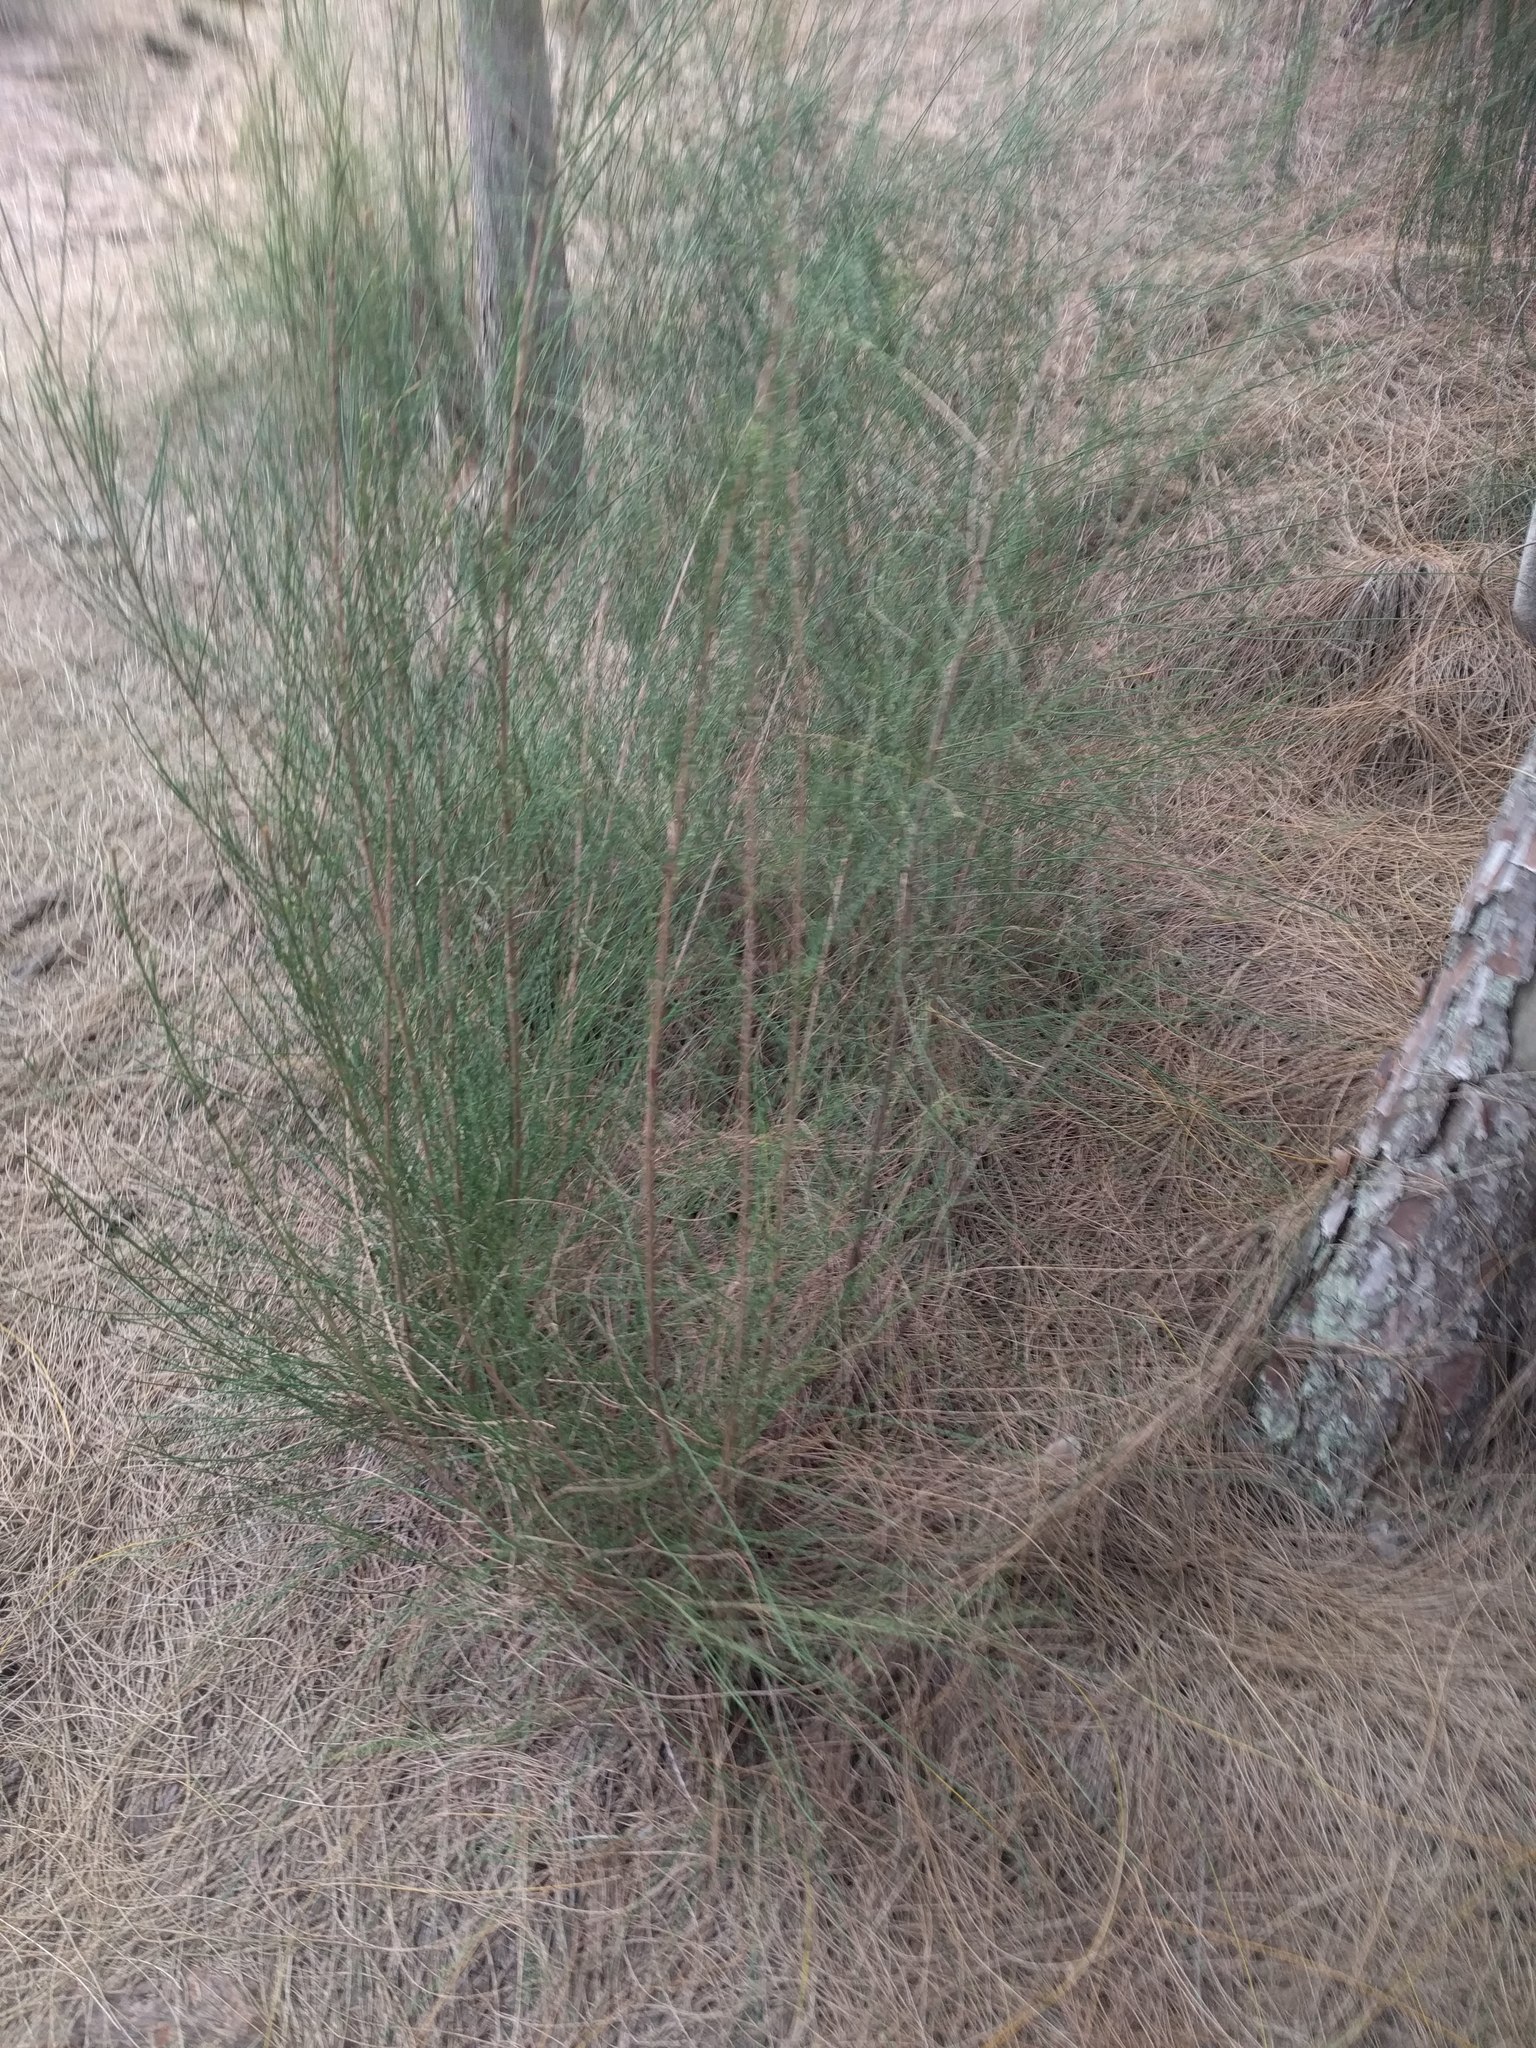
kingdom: Plantae
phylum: Tracheophyta
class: Magnoliopsida
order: Fagales
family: Casuarinaceae
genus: Casuarina
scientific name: Casuarina equisetifolia
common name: Beach sheoak
